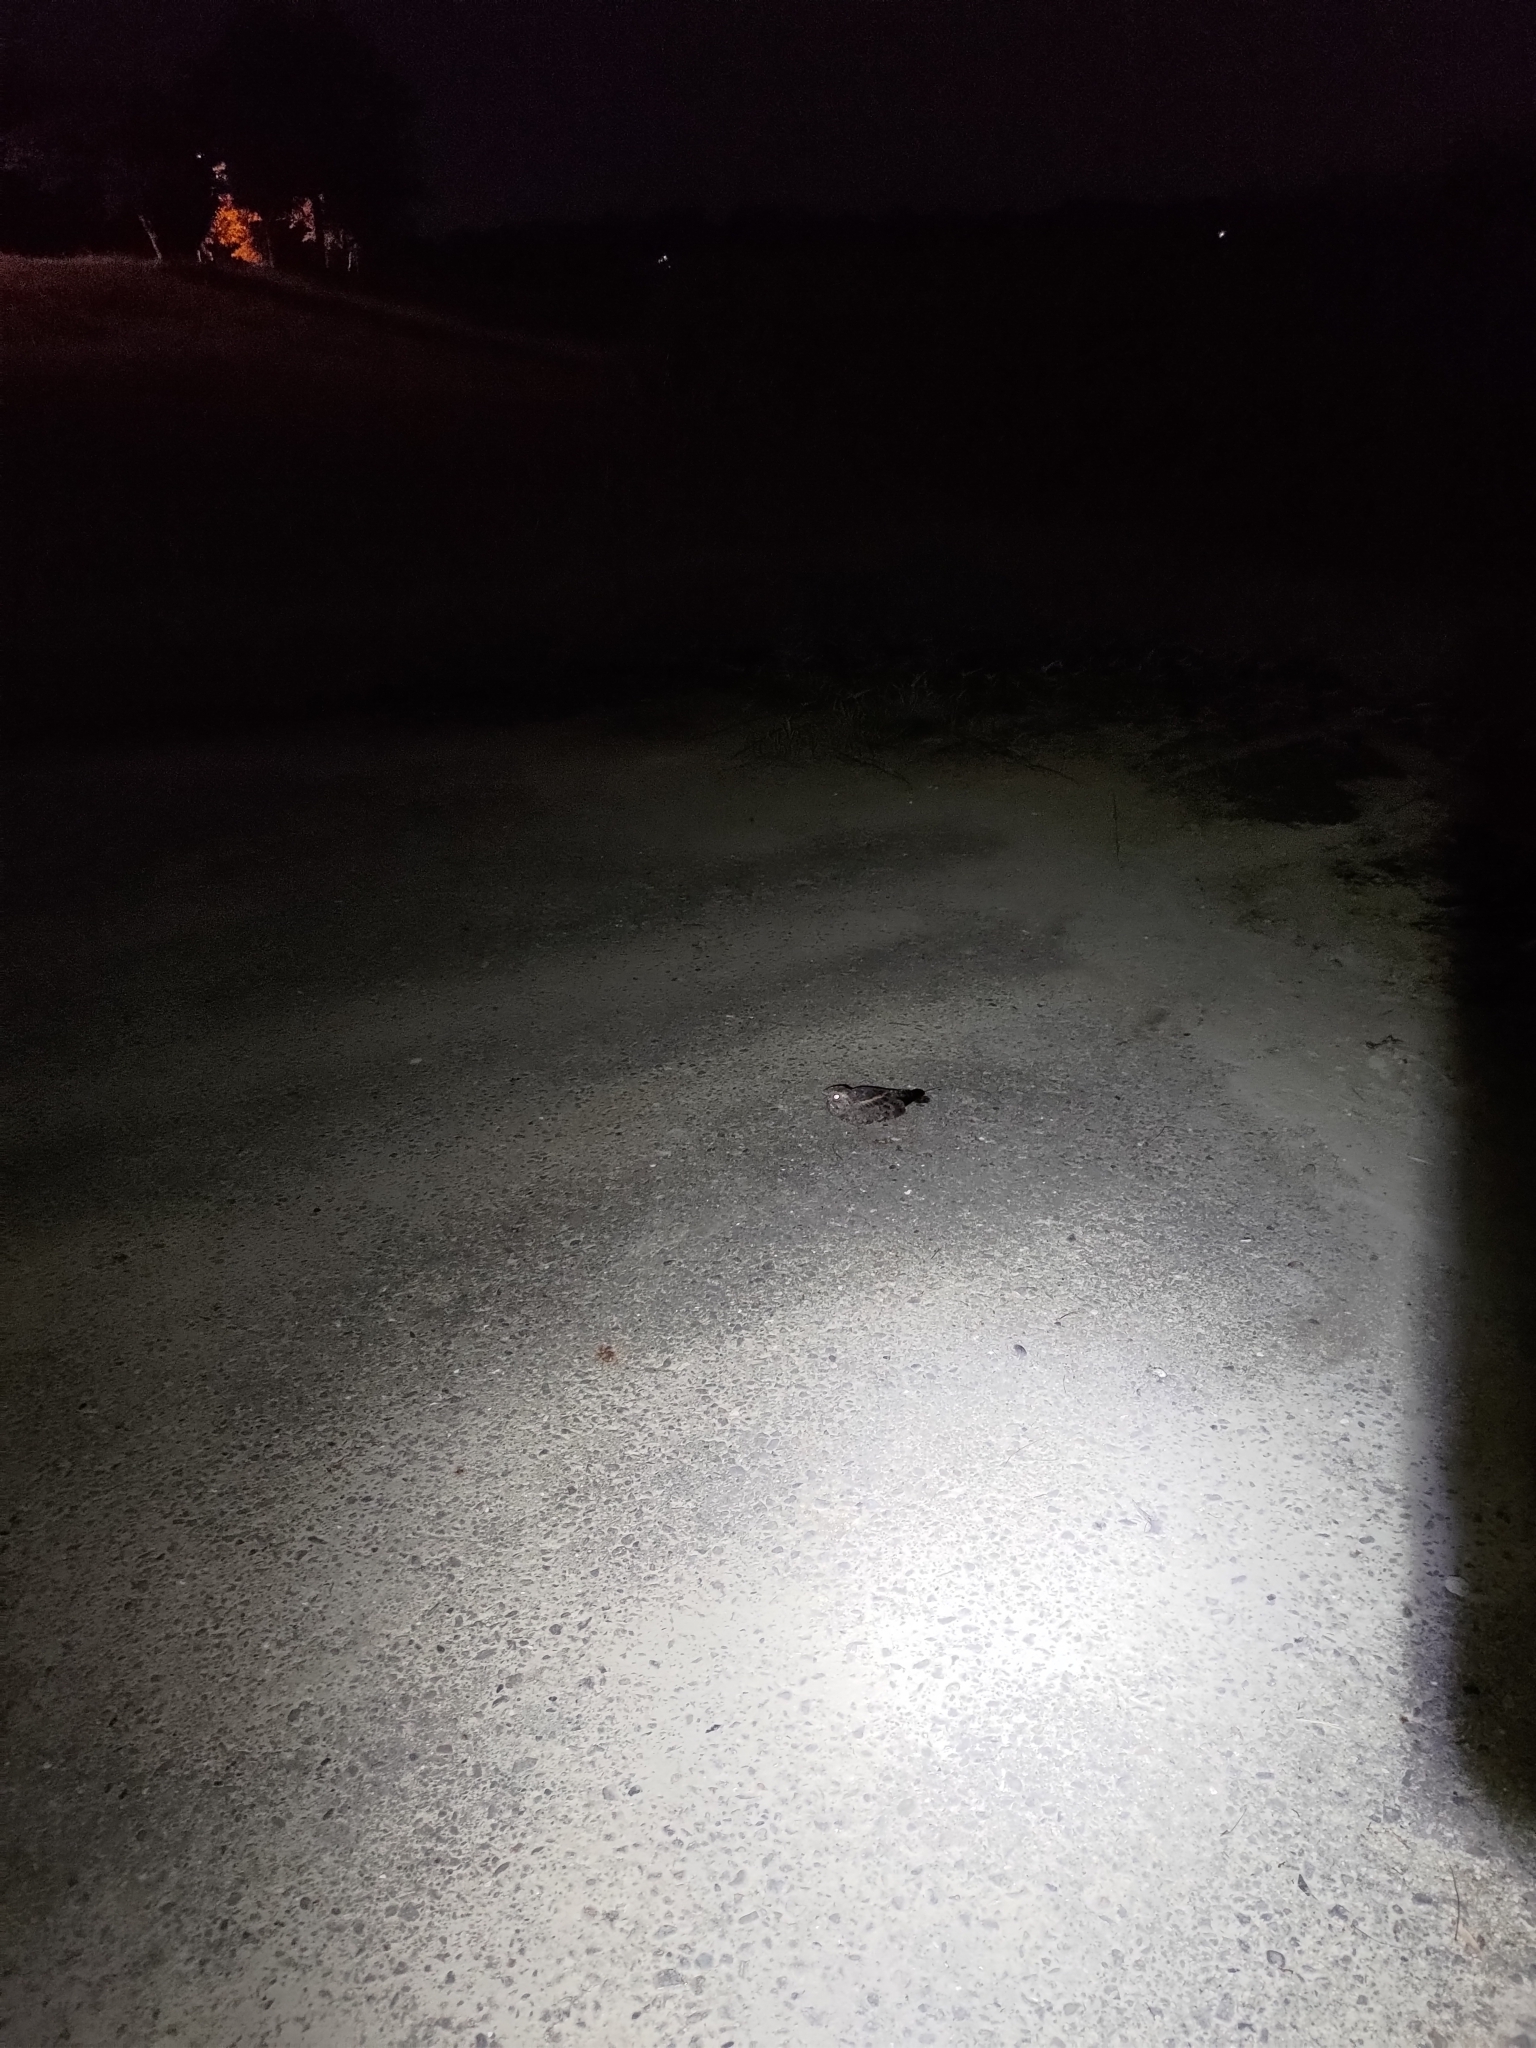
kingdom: Animalia
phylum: Chordata
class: Aves
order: Caprimulgiformes
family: Caprimulgidae
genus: Caprimulgus
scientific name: Caprimulgus affinis
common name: Savanna nightjar
